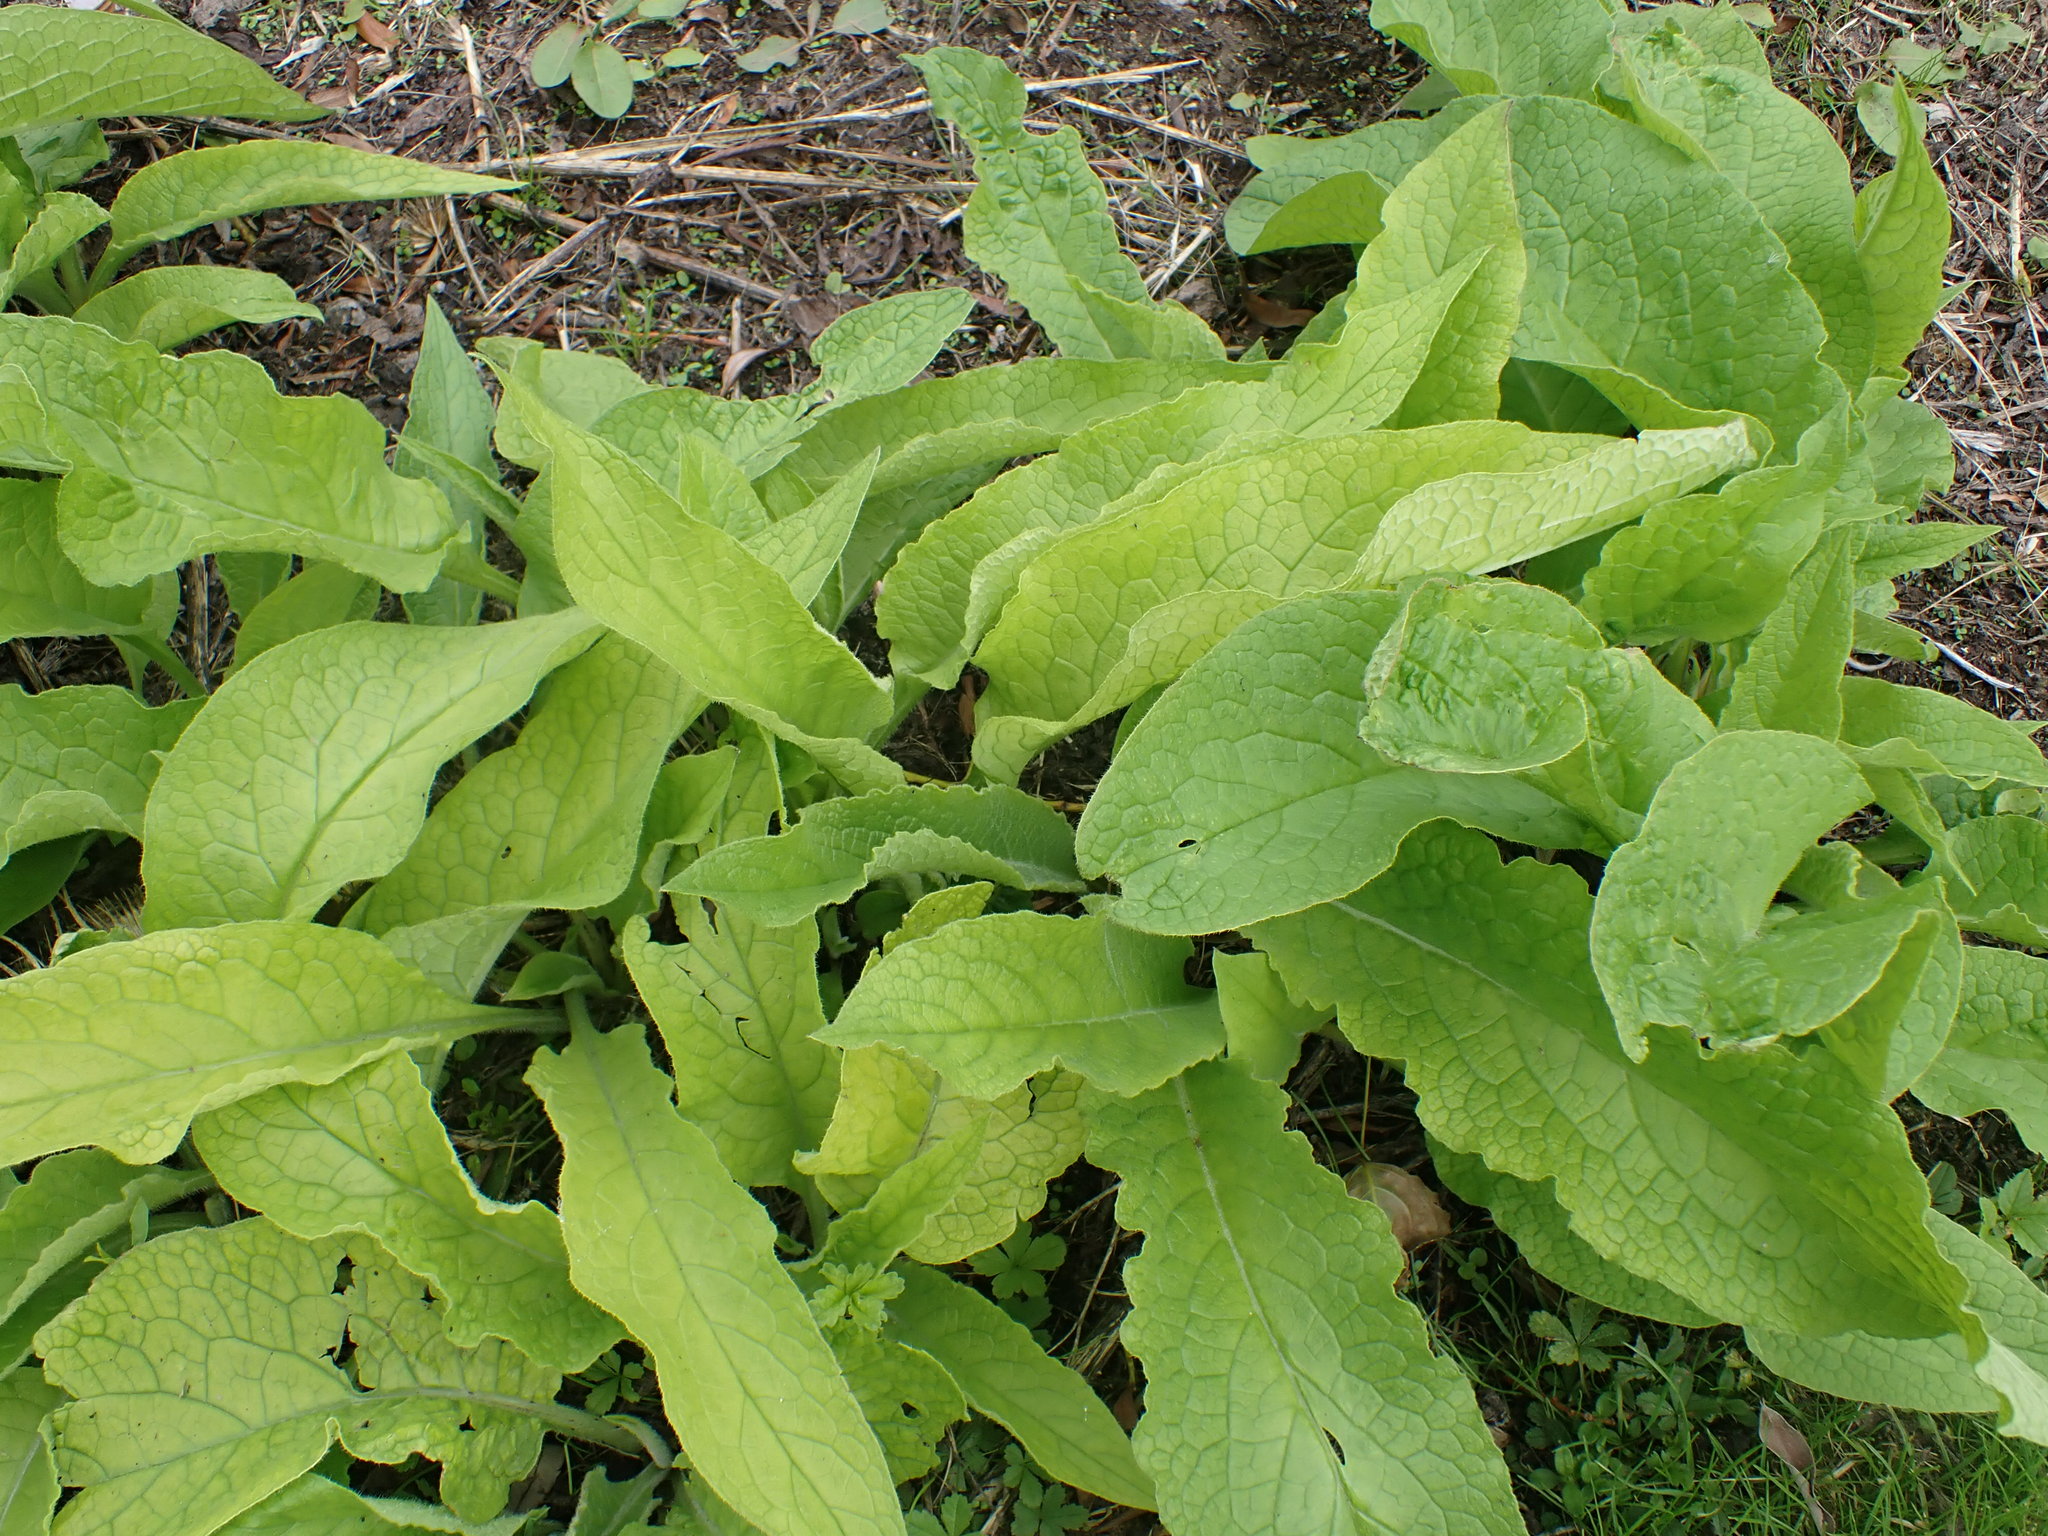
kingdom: Plantae
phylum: Tracheophyta
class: Magnoliopsida
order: Lamiales
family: Plantaginaceae
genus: Digitalis
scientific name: Digitalis purpurea
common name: Foxglove
